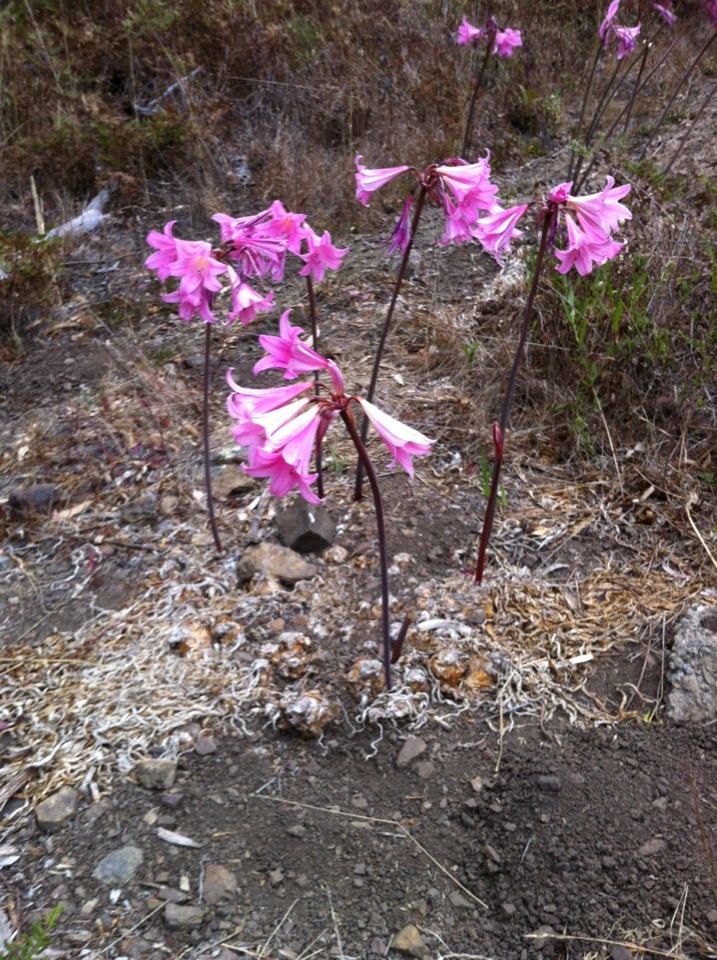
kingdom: Plantae
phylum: Tracheophyta
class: Liliopsida
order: Asparagales
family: Amaryllidaceae
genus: Amaryllis
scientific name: Amaryllis belladonna
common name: Jersey lily
